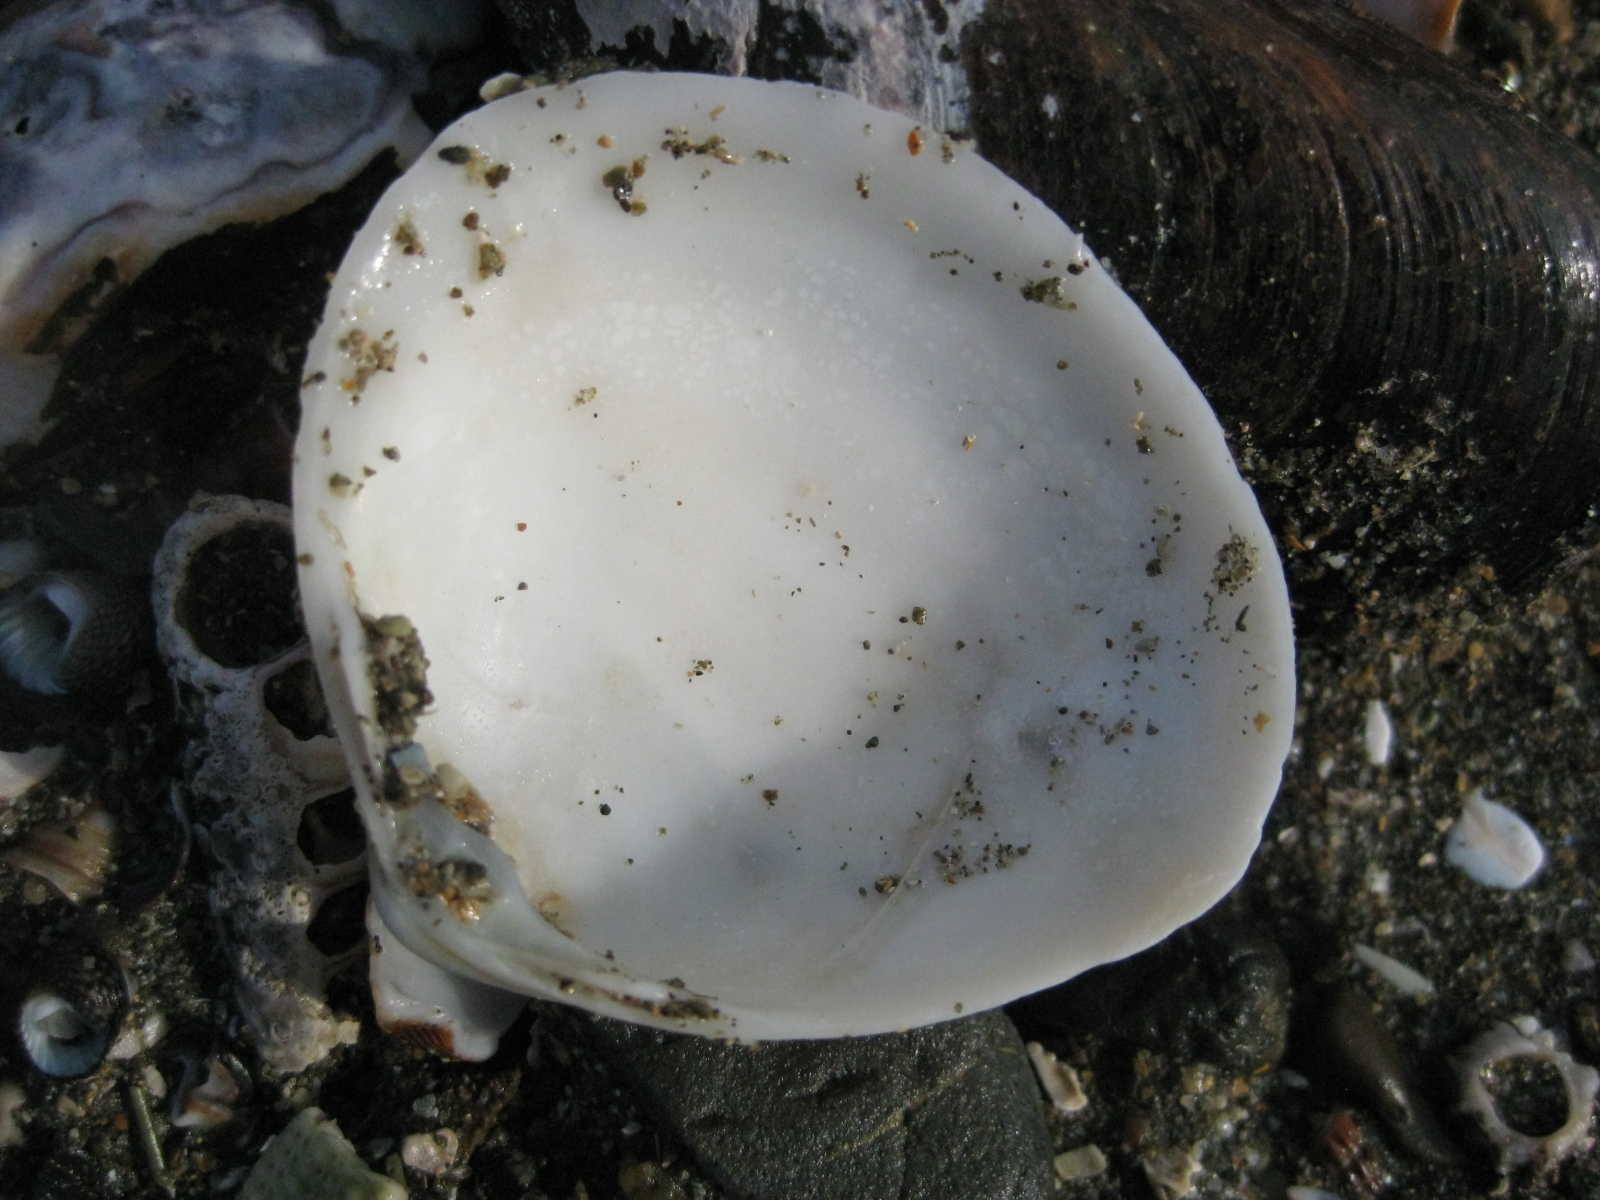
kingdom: Animalia
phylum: Mollusca
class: Bivalvia
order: Venerida
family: Mactridae
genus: Spisula
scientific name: Spisula discors
